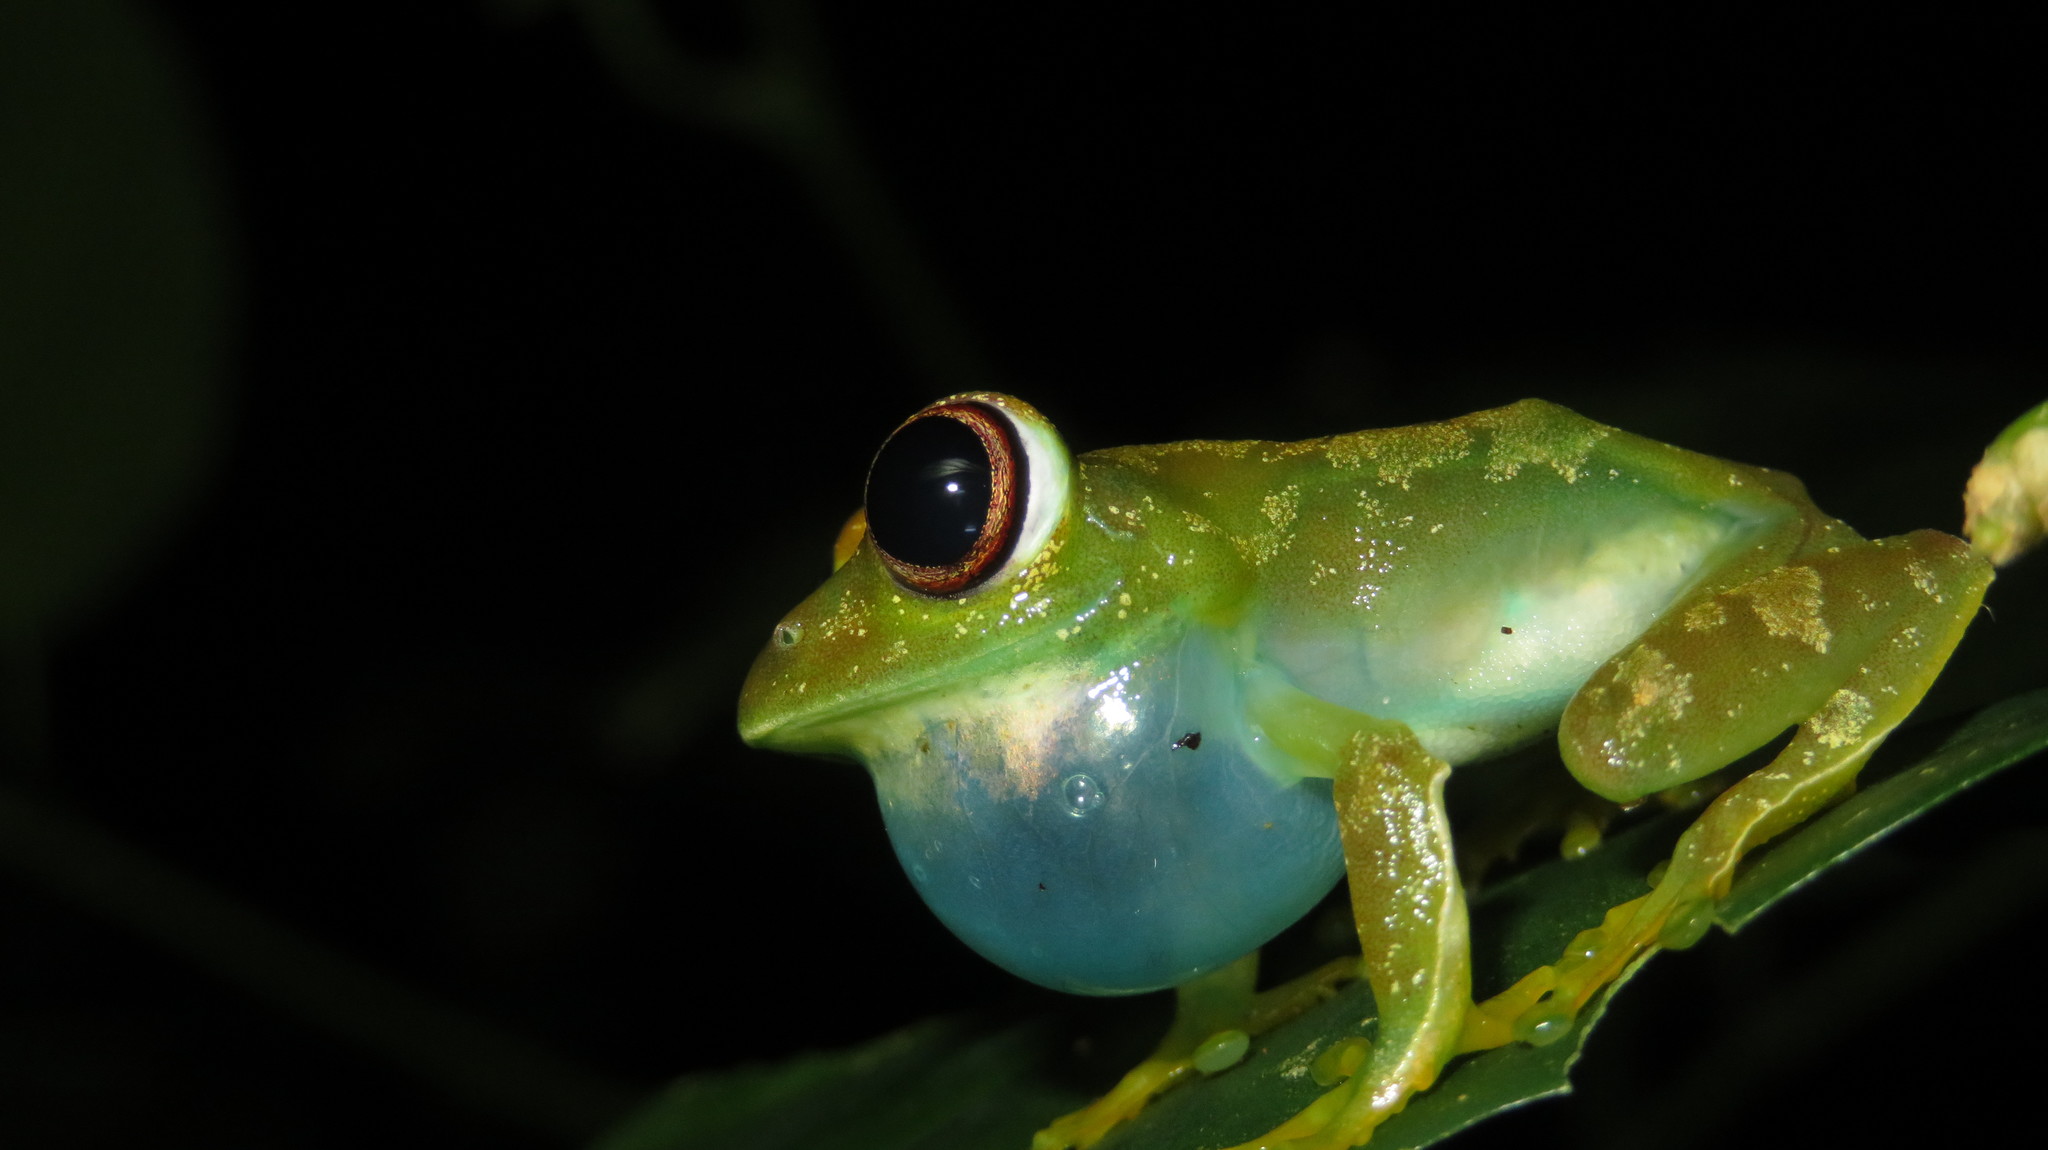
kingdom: Animalia
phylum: Chordata
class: Amphibia
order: Anura
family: Arthroleptidae
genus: Leptopelis
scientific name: Leptopelis grandiceps
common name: Large headed forest treefrog
